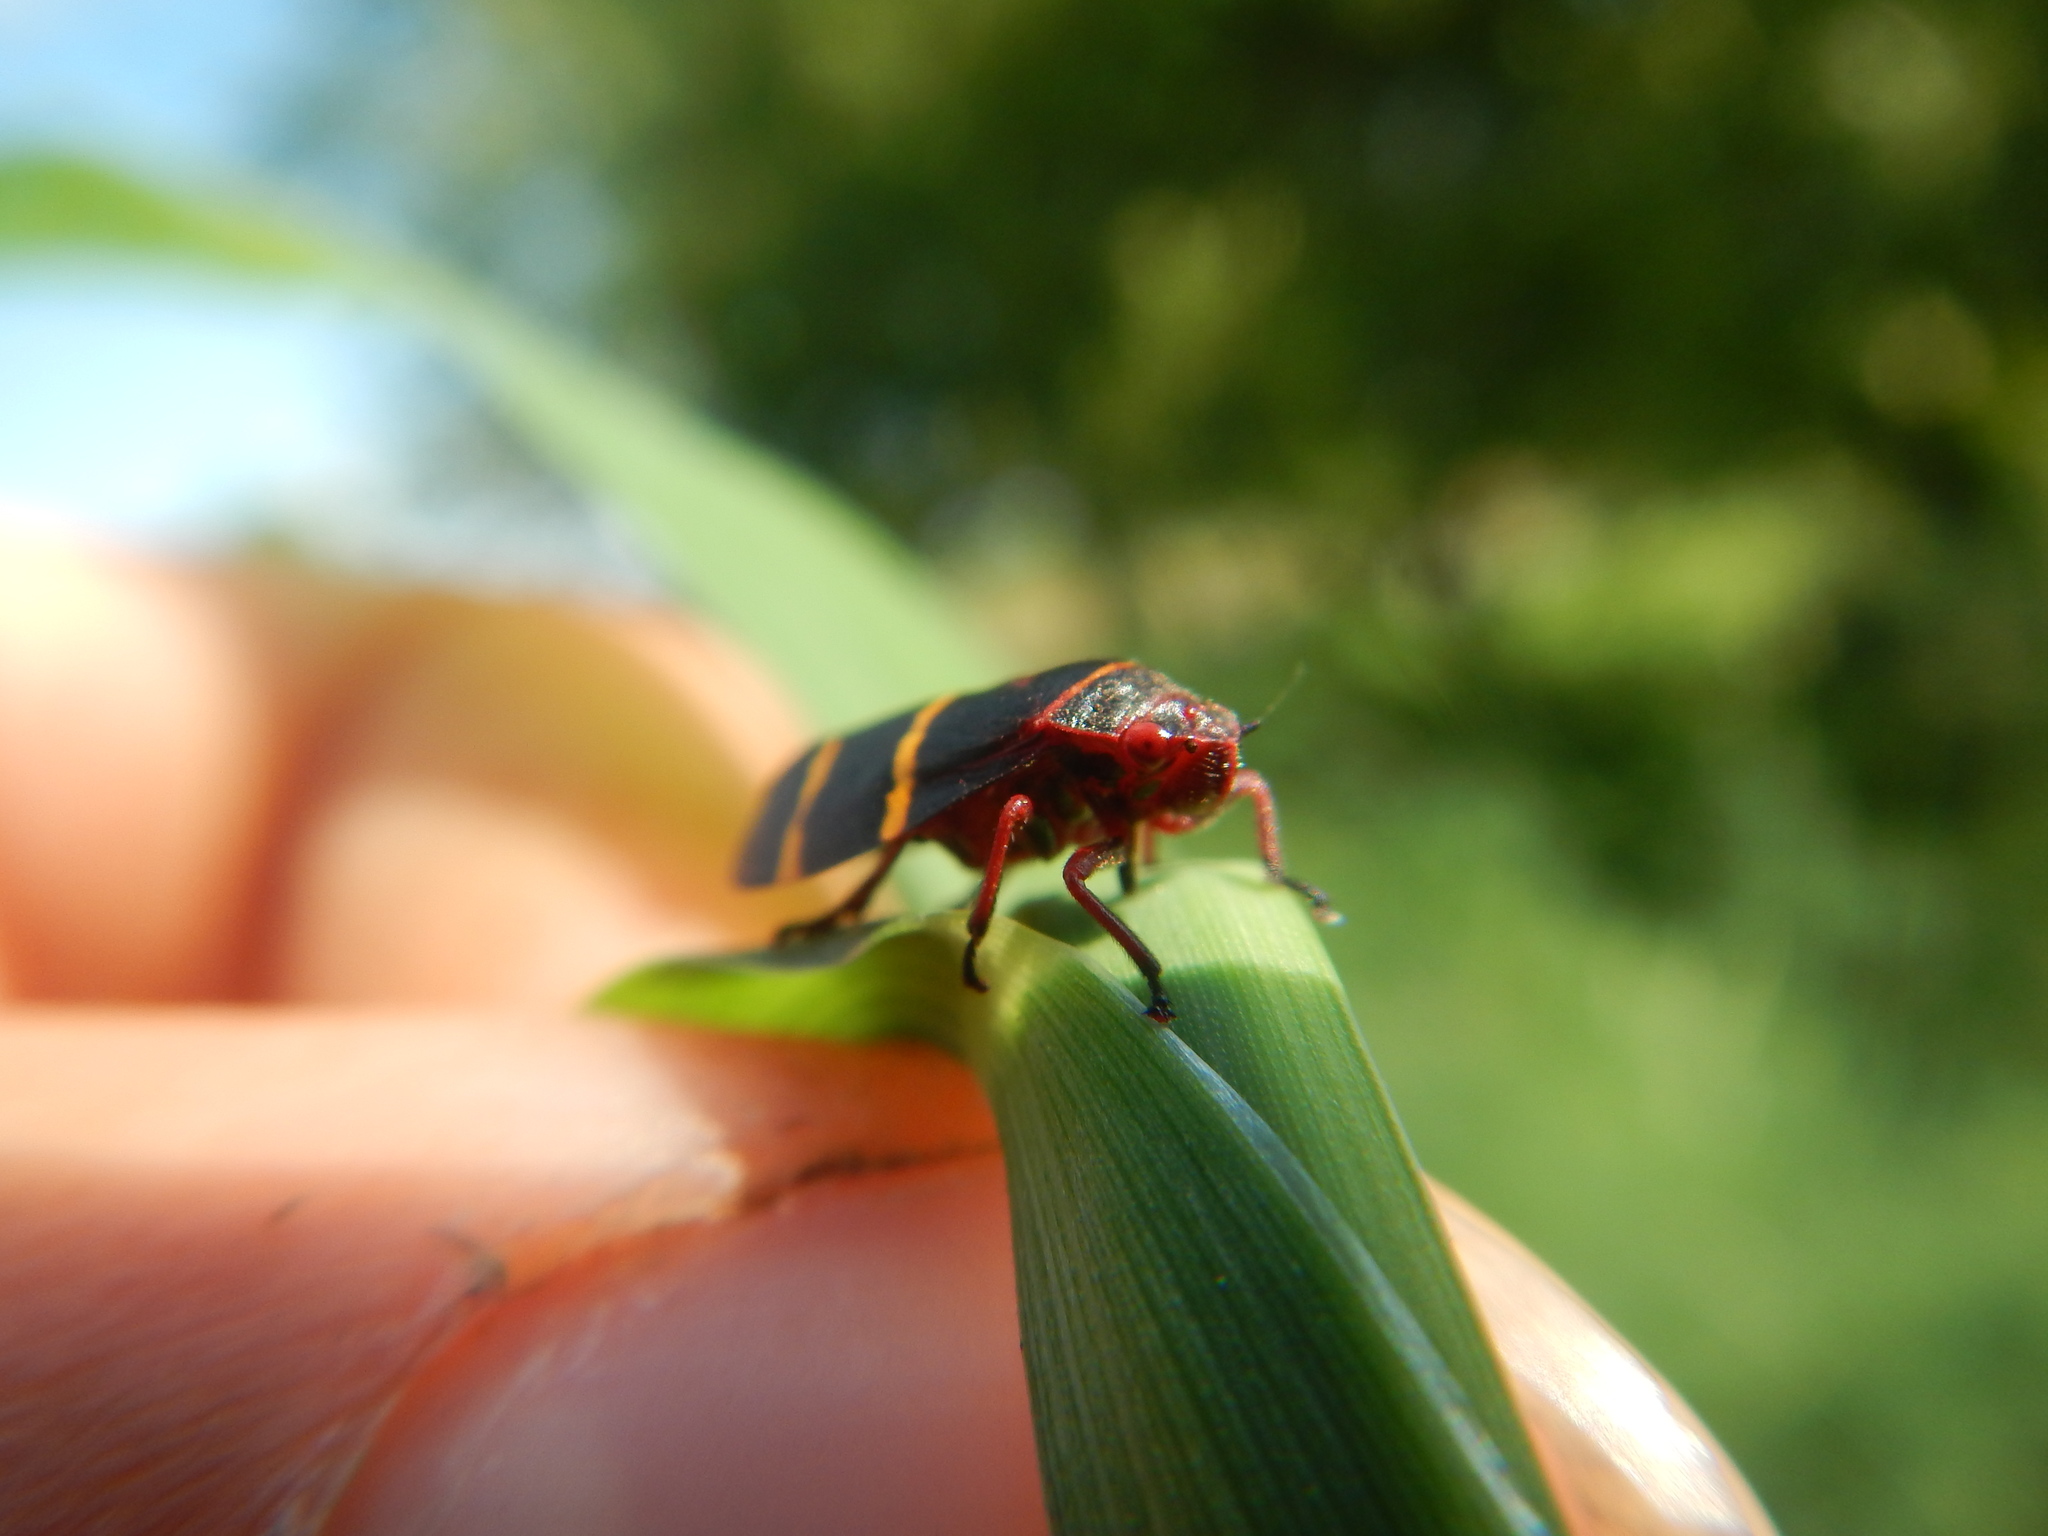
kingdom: Animalia
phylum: Arthropoda
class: Insecta
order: Hemiptera
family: Cercopidae
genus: Prosapia
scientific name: Prosapia bicincta
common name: Twolined spittlebug
